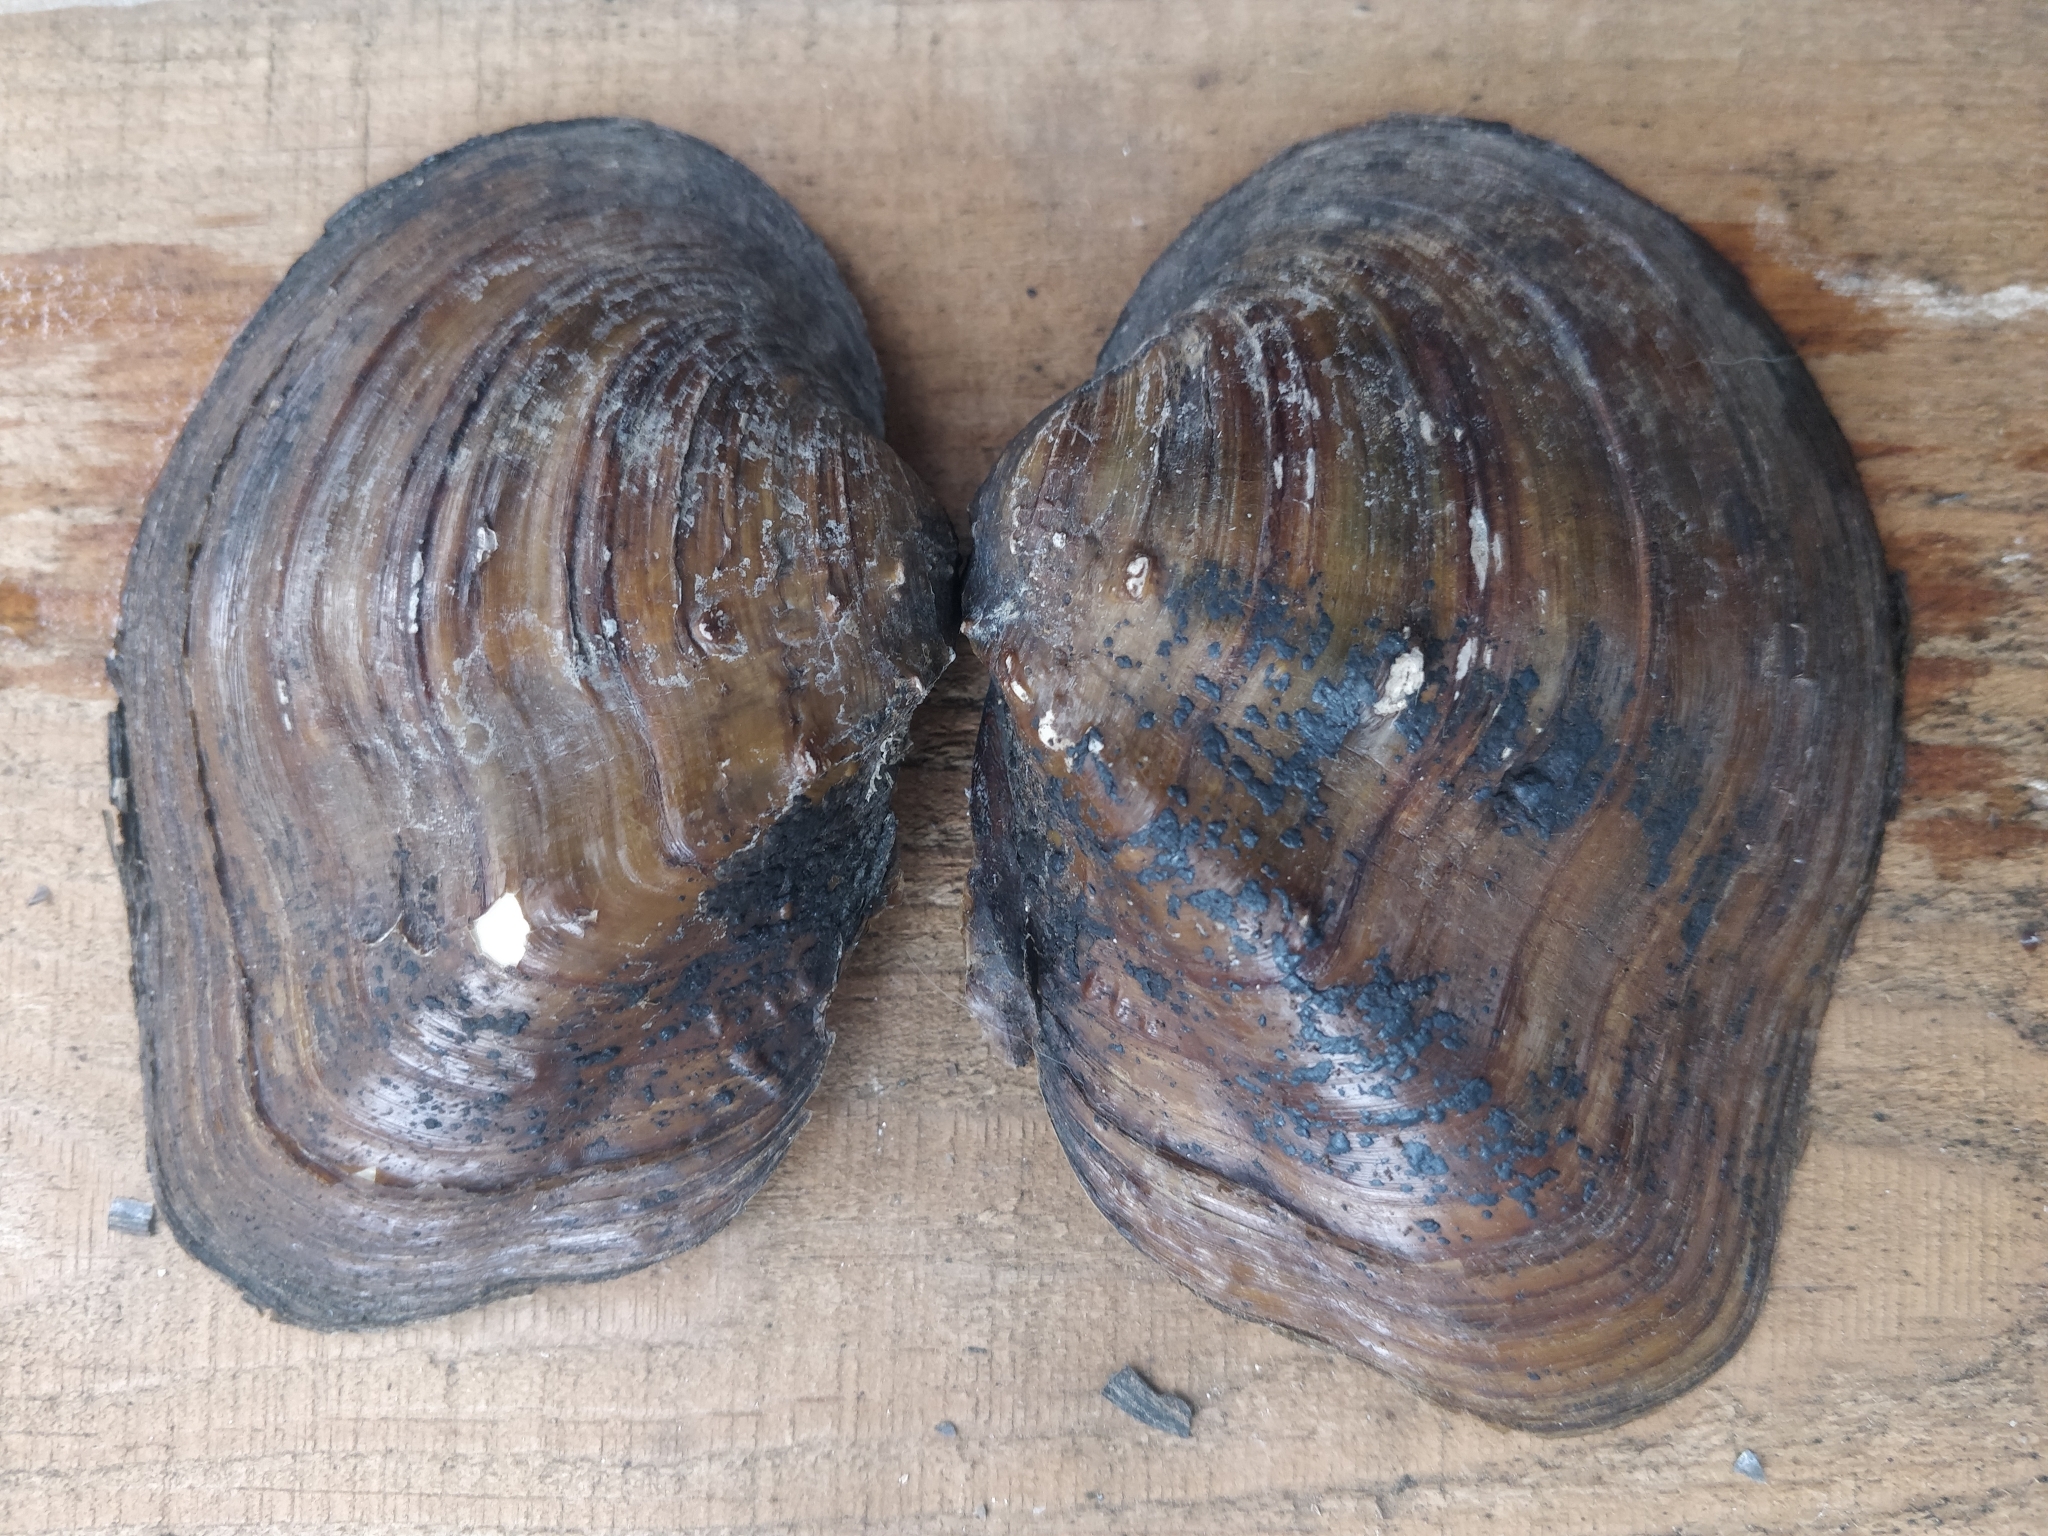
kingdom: Animalia
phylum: Mollusca
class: Bivalvia
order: Unionida
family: Unionidae
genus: Quadrula
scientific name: Quadrula quadrula
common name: Mapleleaf
